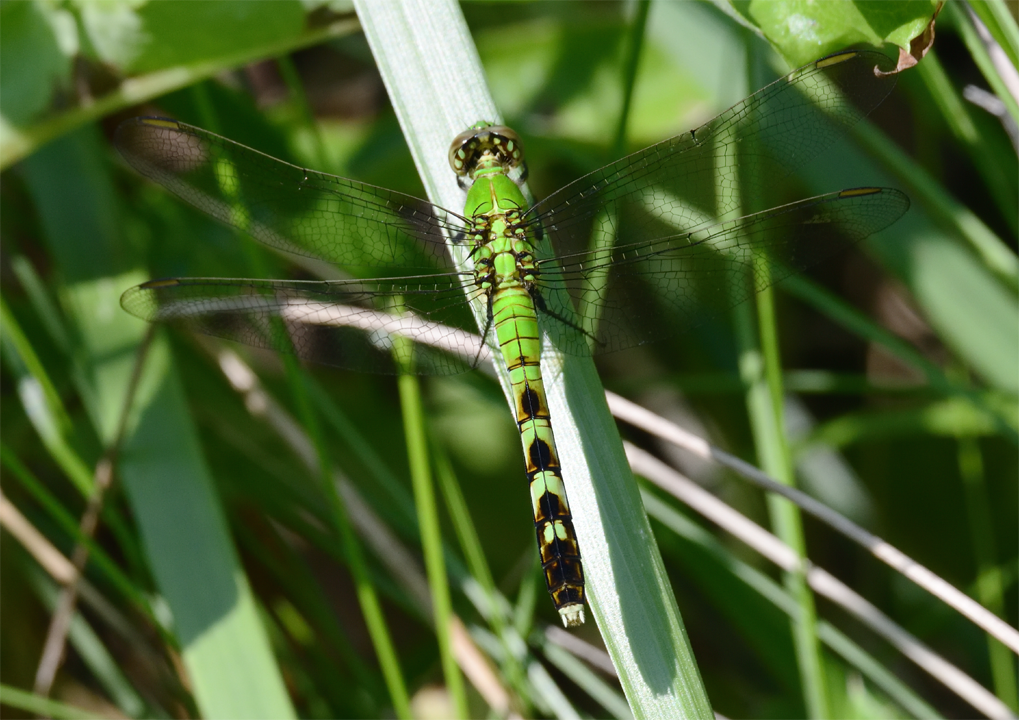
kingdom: Animalia
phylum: Arthropoda
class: Insecta
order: Odonata
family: Libellulidae
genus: Erythemis
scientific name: Erythemis simplicicollis
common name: Eastern pondhawk
